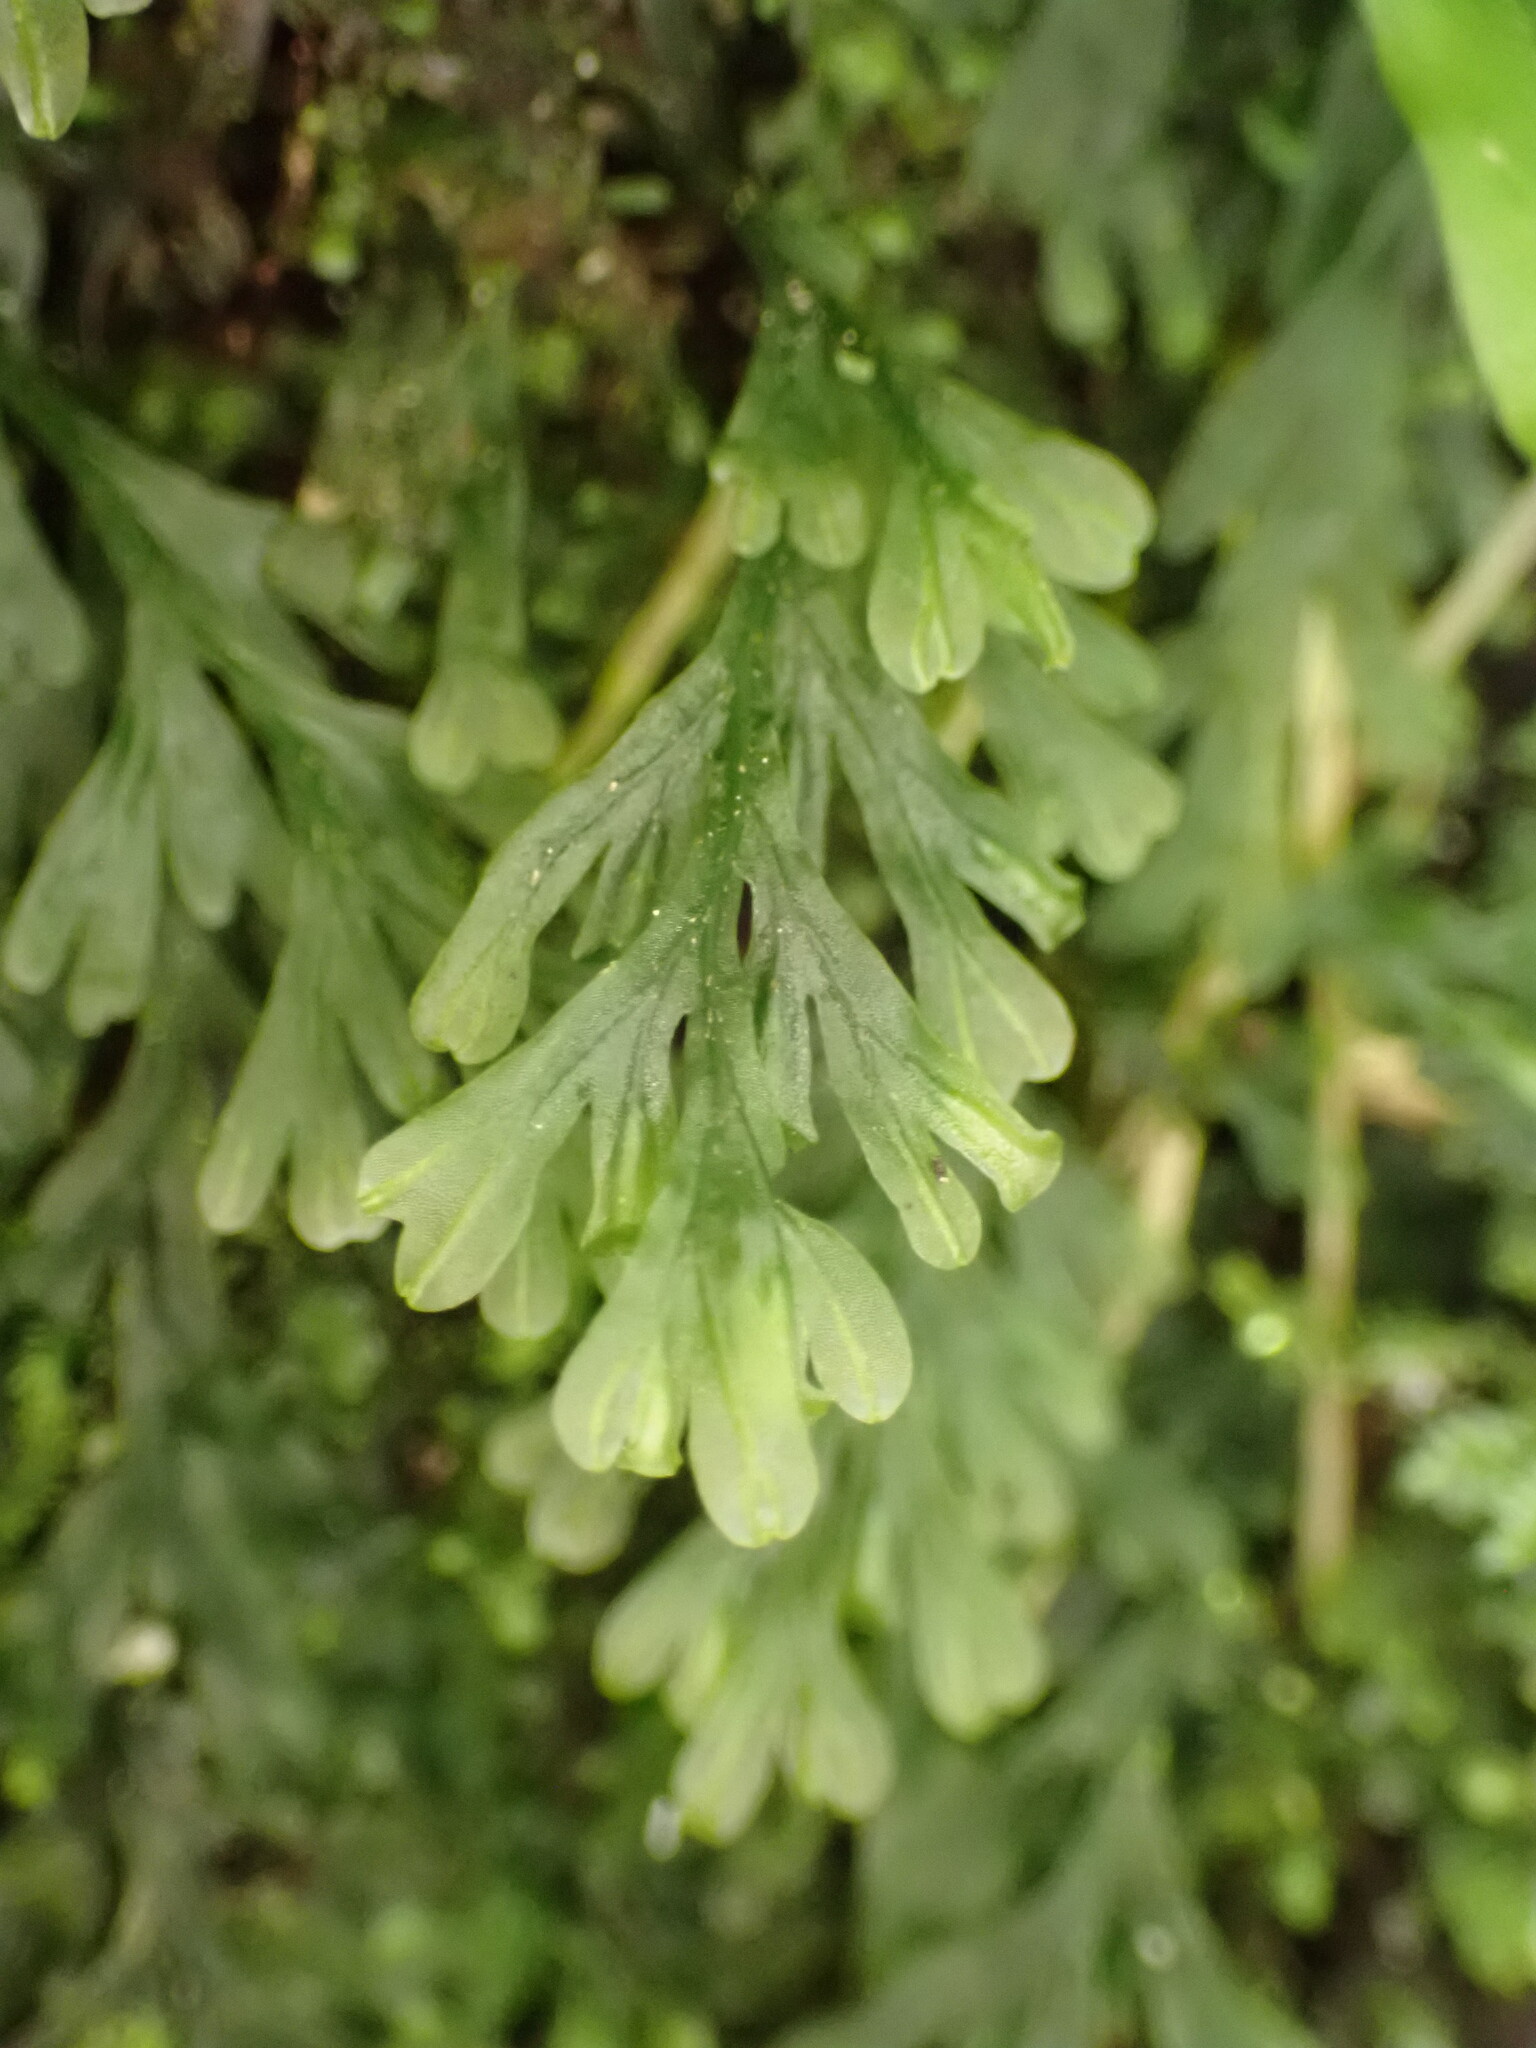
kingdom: Plantae
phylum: Tracheophyta
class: Polypodiopsida
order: Hymenophyllales
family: Hymenophyllaceae
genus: Polyphlebium
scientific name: Polyphlebium endlicherianum
